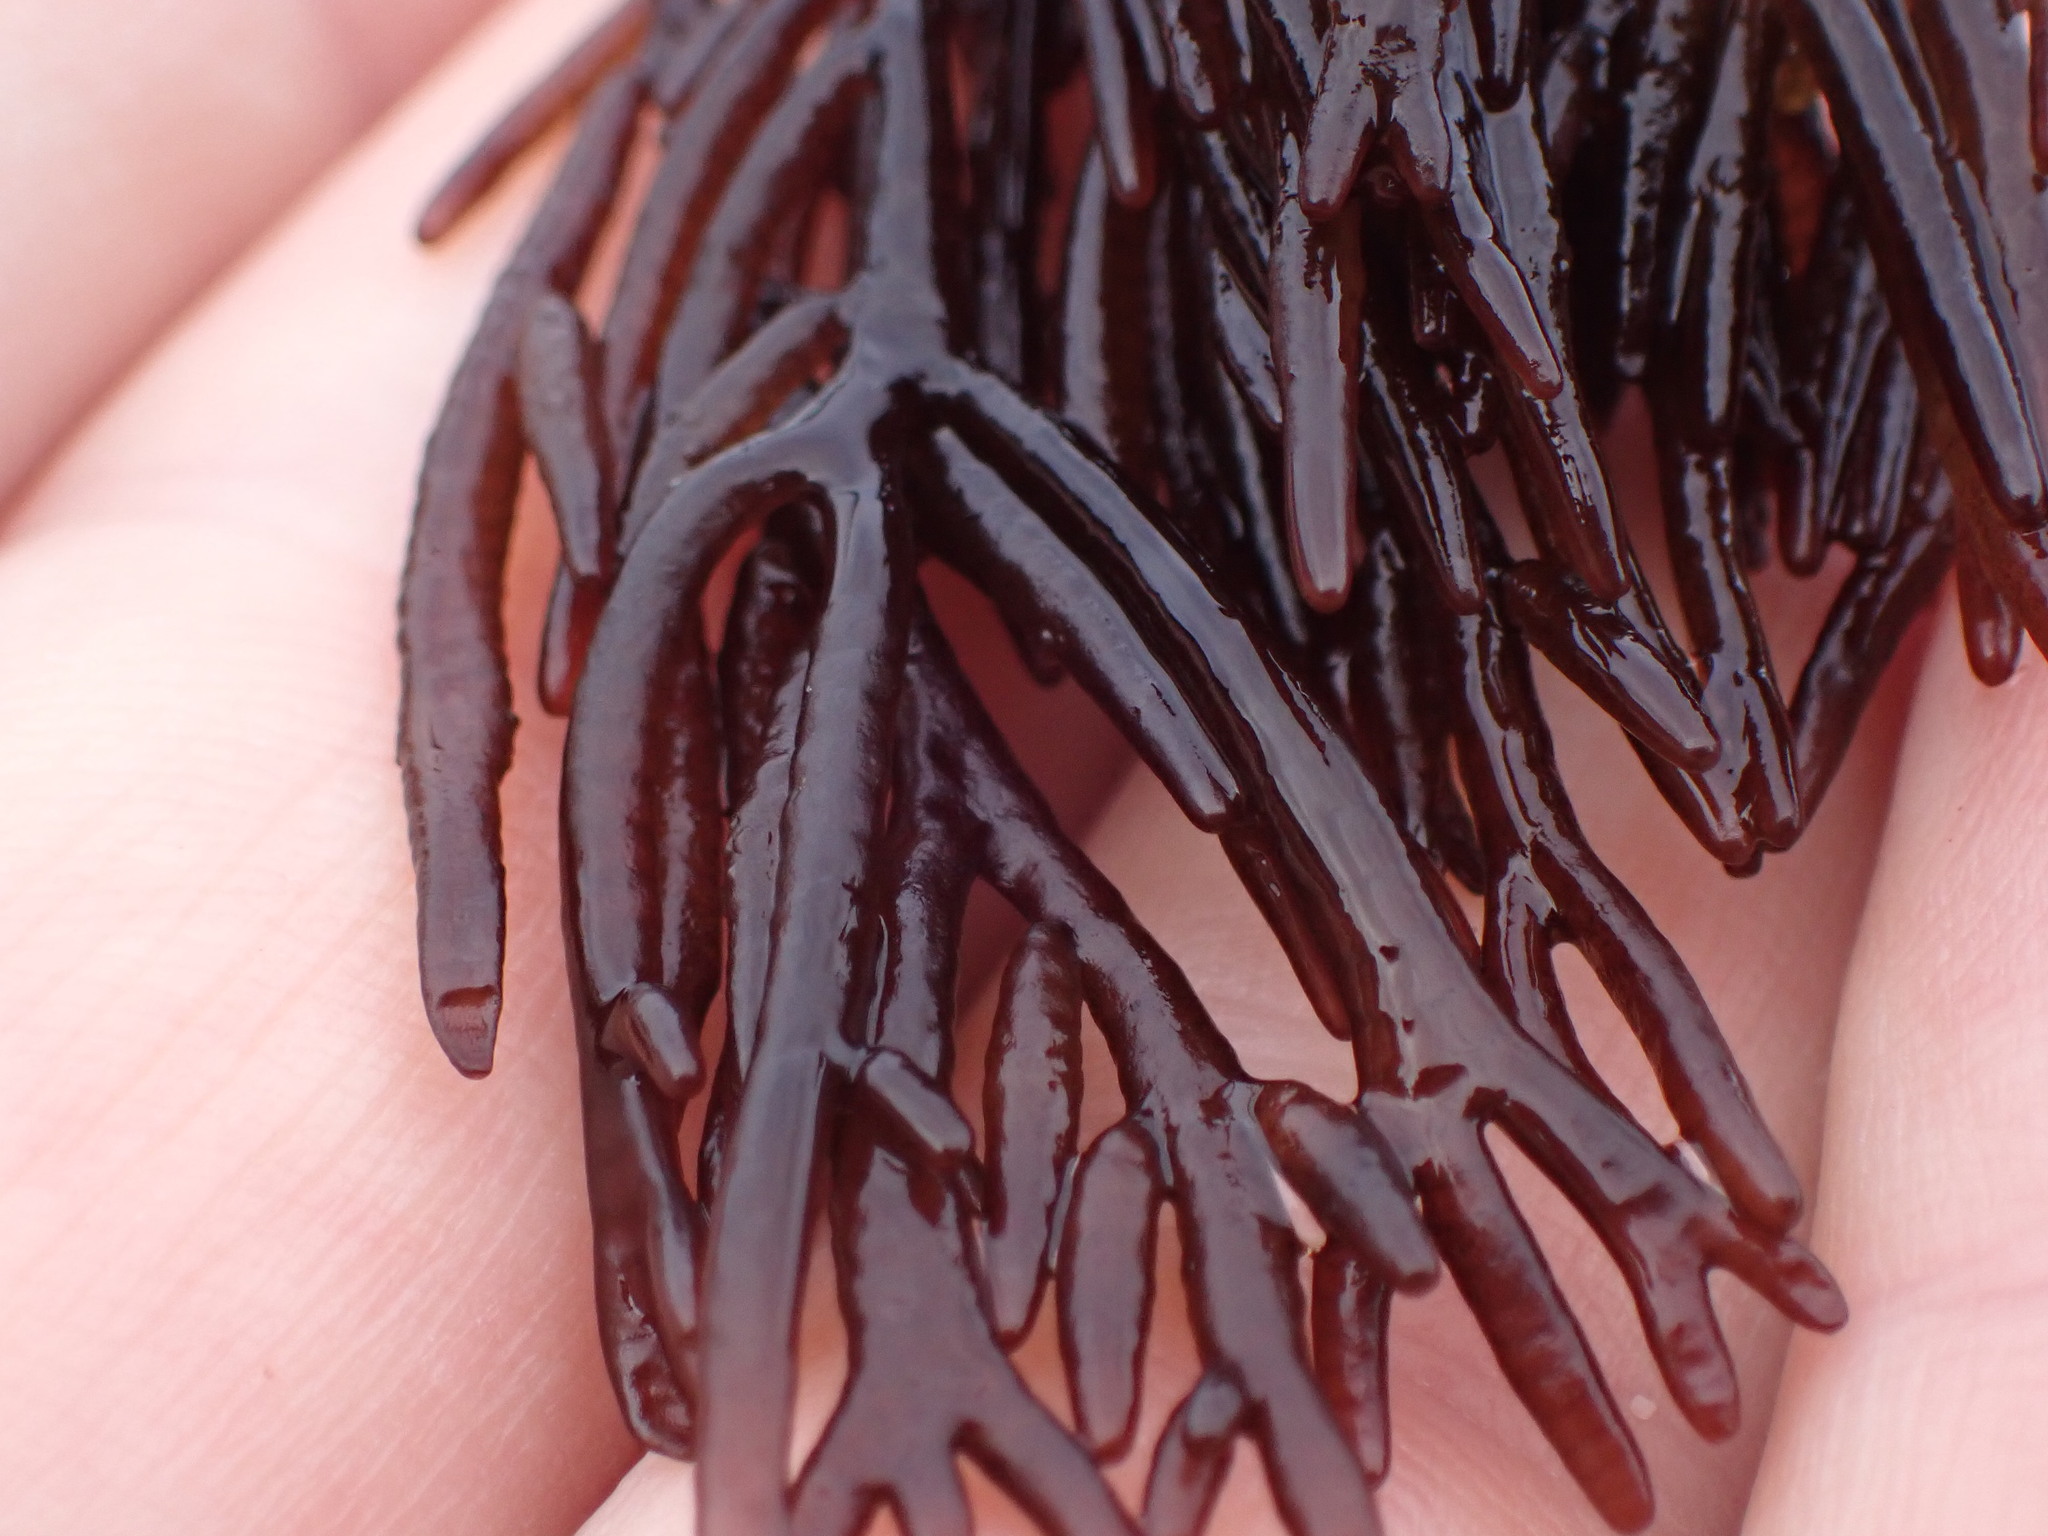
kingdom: Plantae
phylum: Rhodophyta
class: Florideophyceae
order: Rhodymeniales
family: Champiaceae
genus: Champia
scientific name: Champia novae-zelandiae
